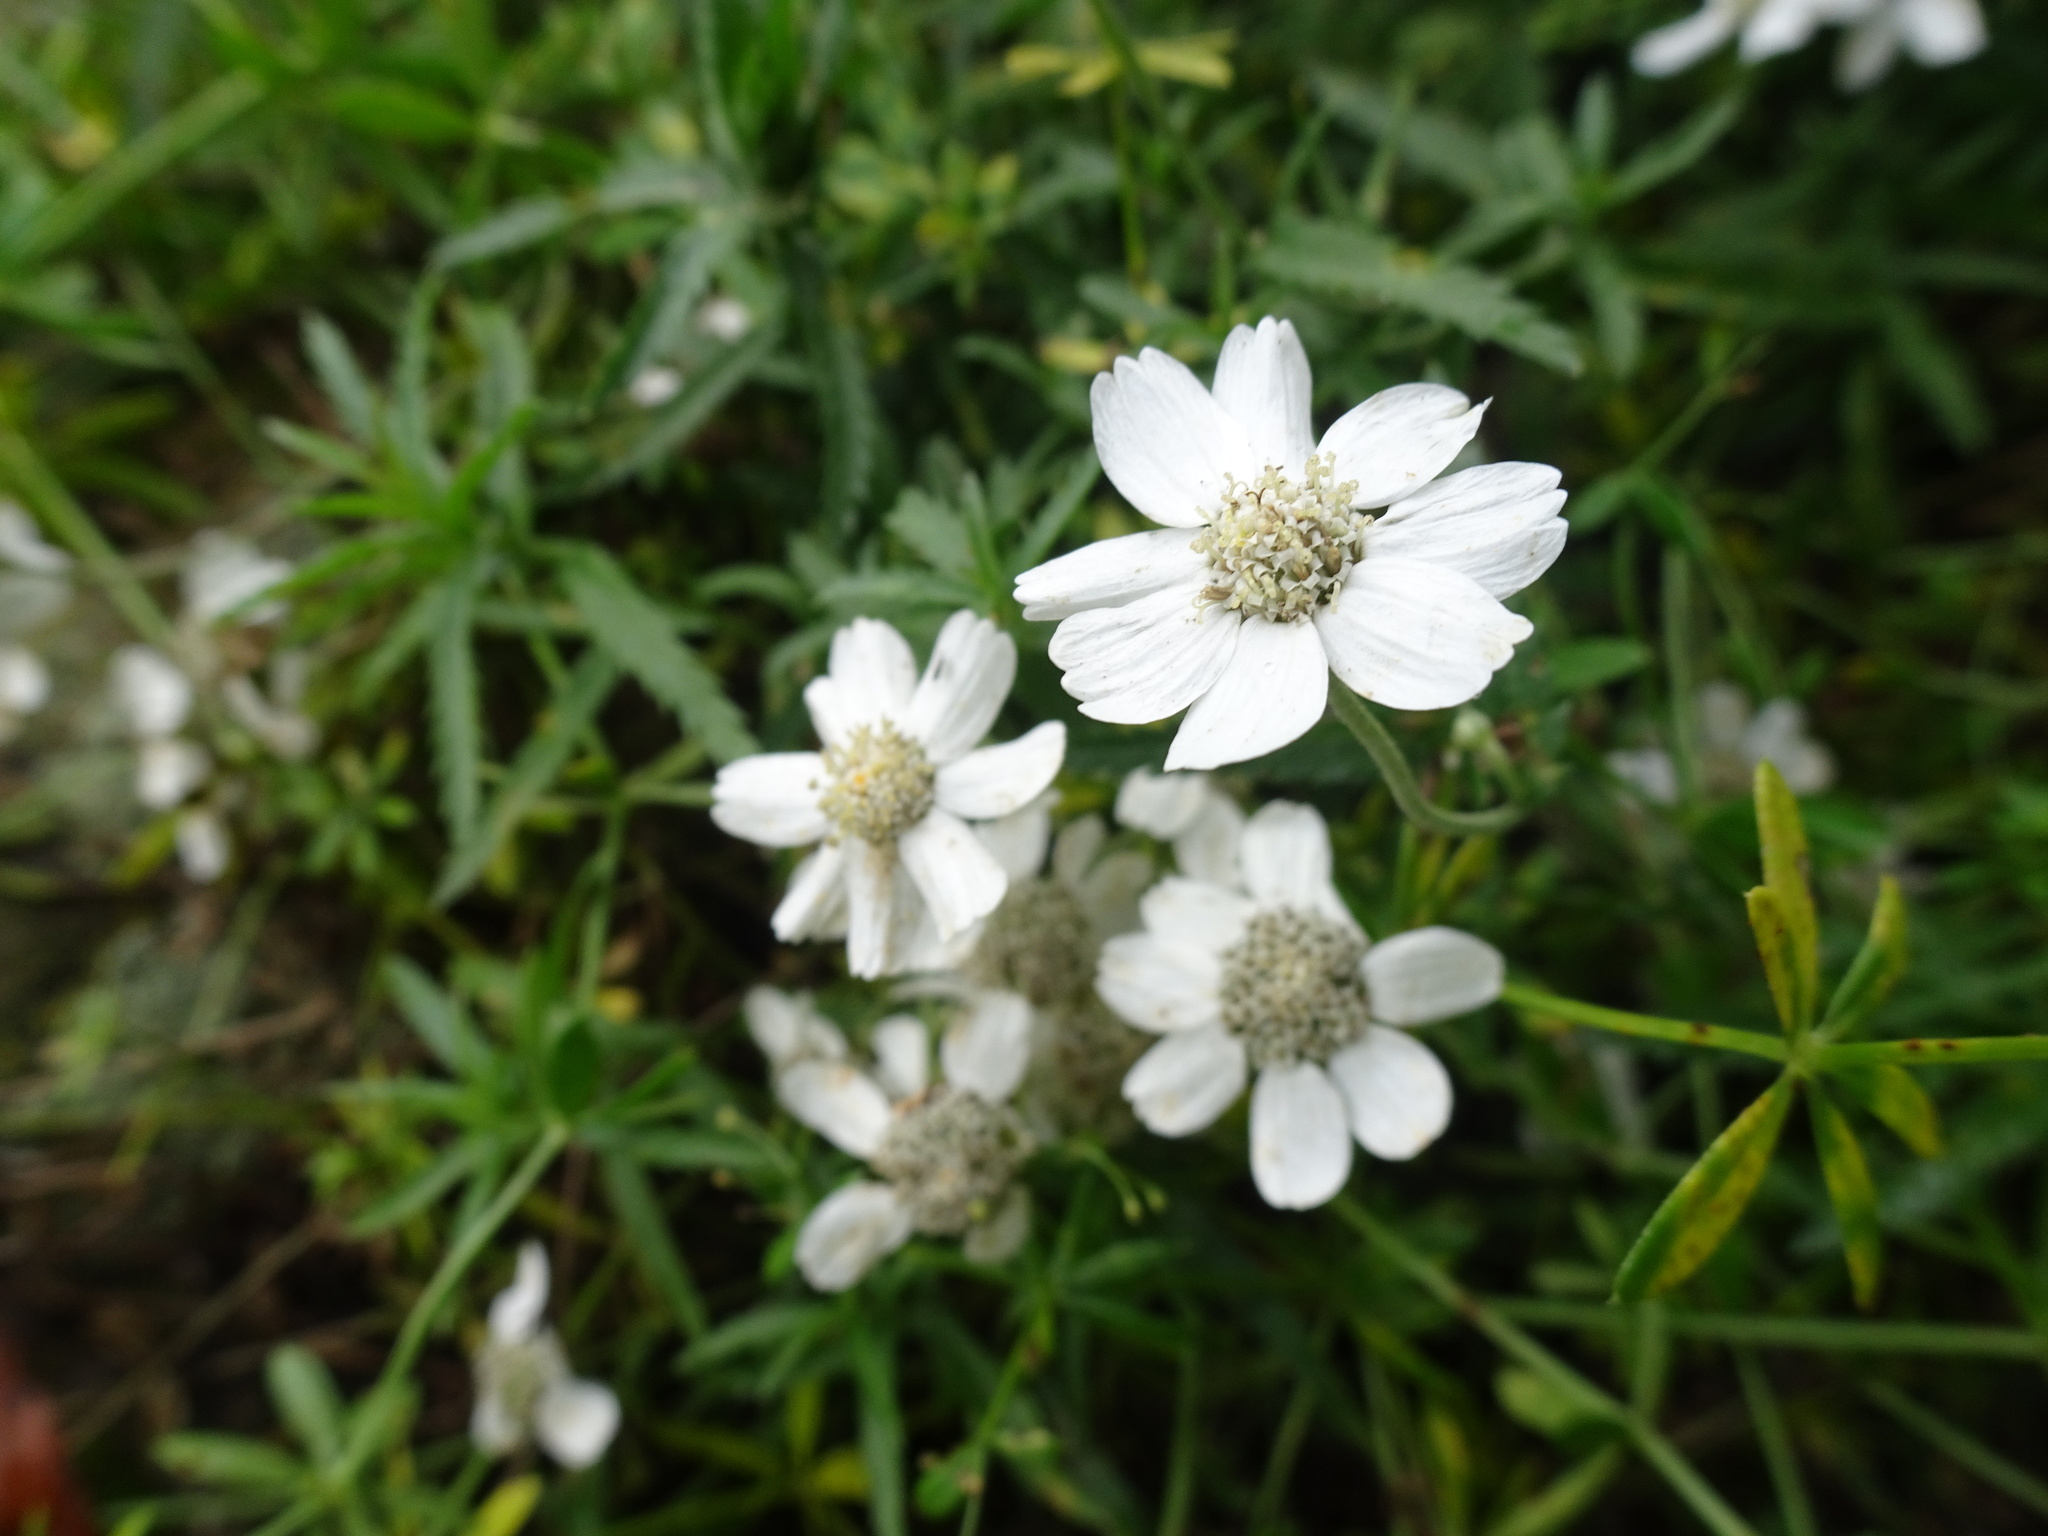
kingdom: Plantae
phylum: Tracheophyta
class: Magnoliopsida
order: Asterales
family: Asteraceae
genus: Achillea
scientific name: Achillea ptarmica
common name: Sneezeweed
